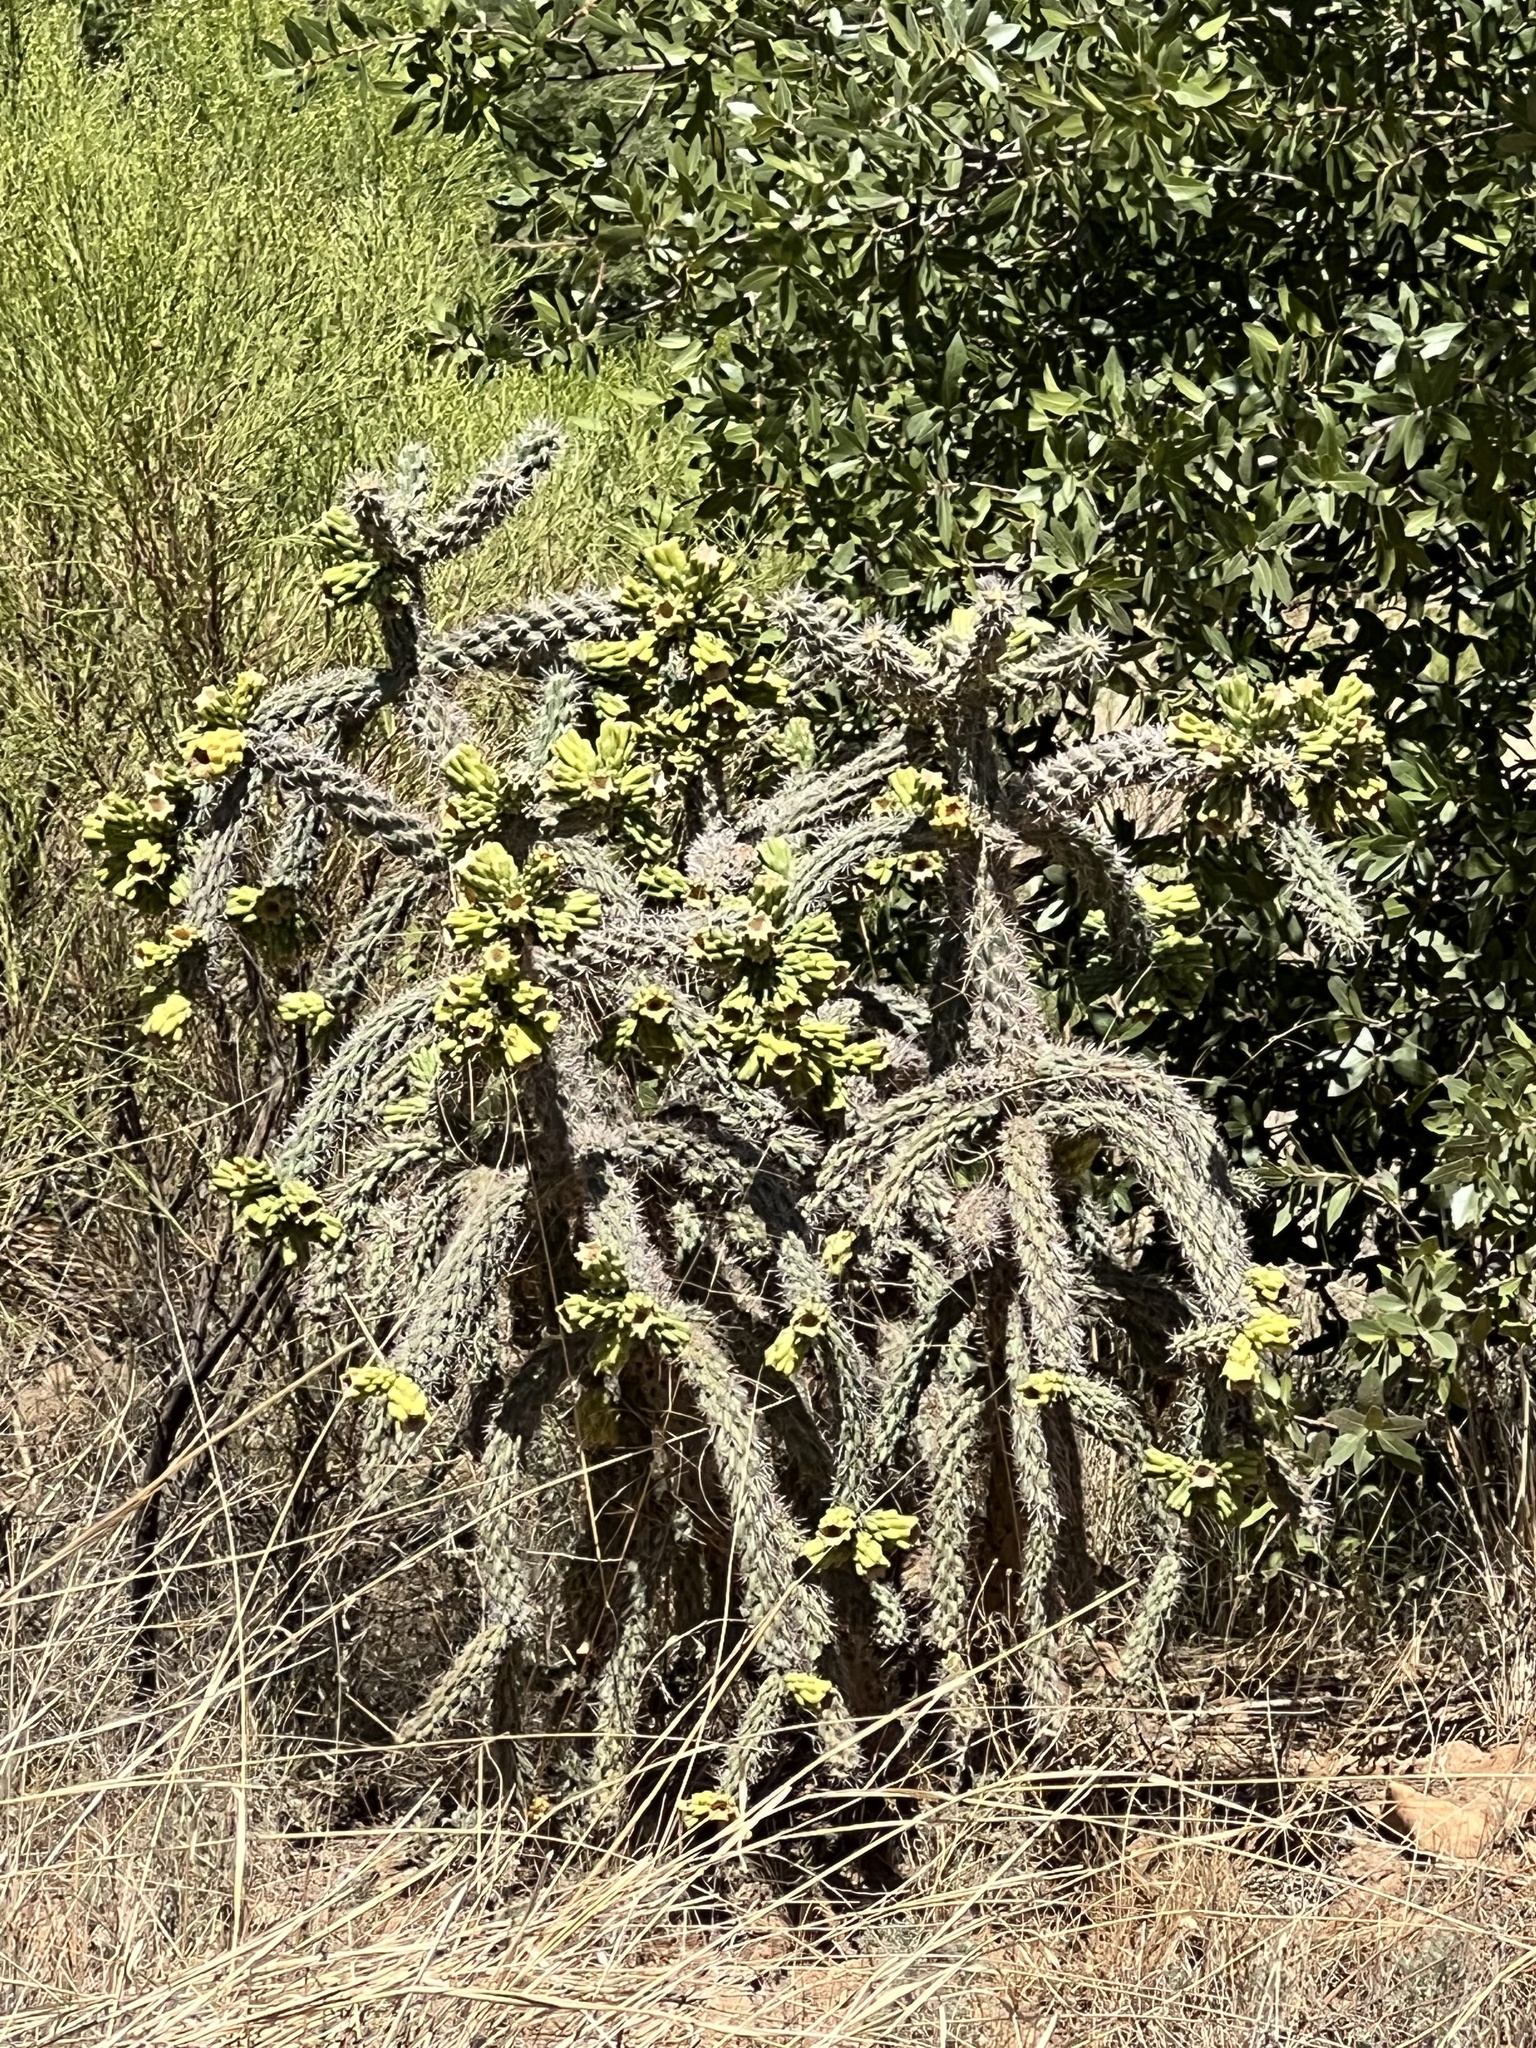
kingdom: Plantae
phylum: Tracheophyta
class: Magnoliopsida
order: Caryophyllales
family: Cactaceae
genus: Cylindropuntia
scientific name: Cylindropuntia imbricata
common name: Candelabrum cactus
